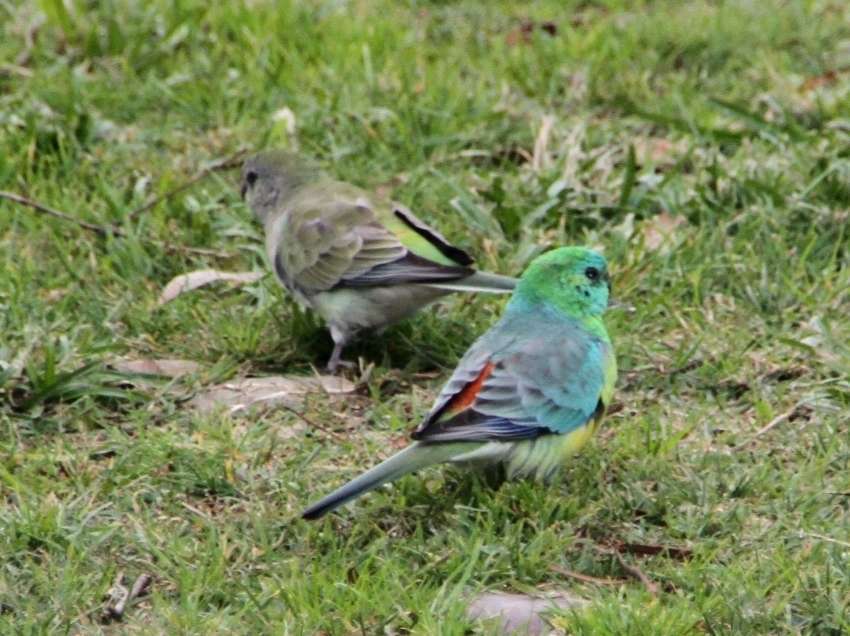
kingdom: Animalia
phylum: Chordata
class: Aves
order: Psittaciformes
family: Psittacidae
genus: Psephotus
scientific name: Psephotus haematonotus
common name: Red-rumped parrot
